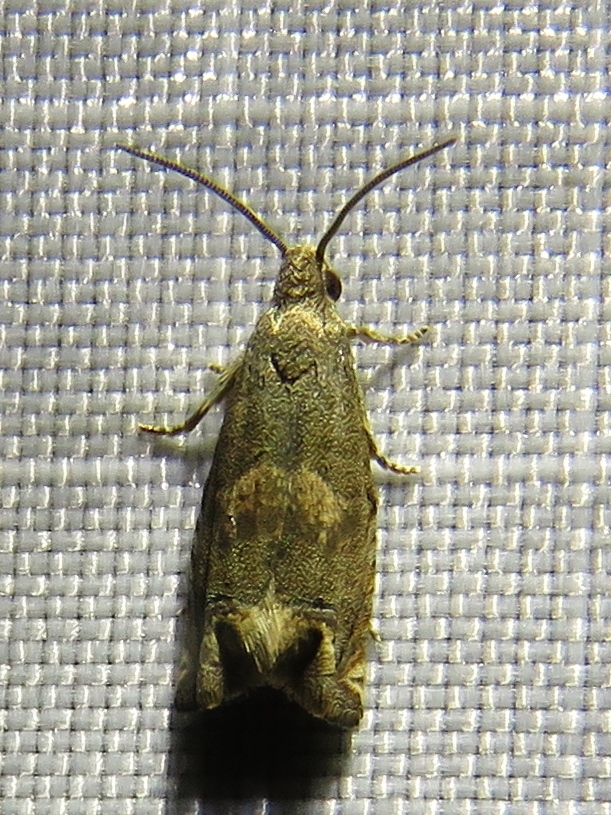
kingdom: Animalia
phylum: Arthropoda
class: Insecta
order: Lepidoptera
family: Tortricidae
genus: Epiblema
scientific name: Epiblema strenuana
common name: Ragweed borer moth
